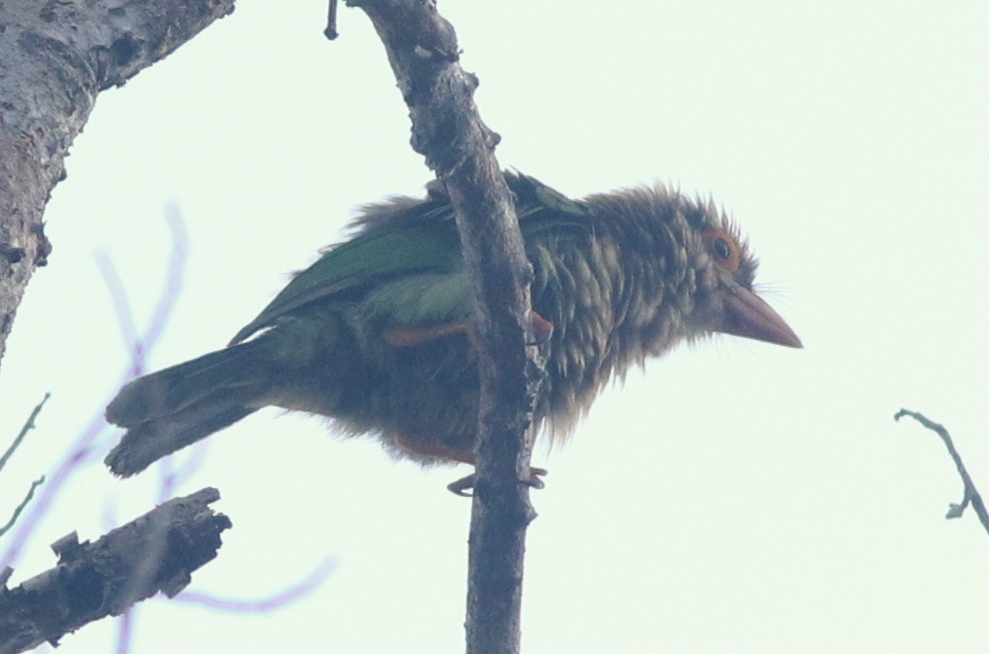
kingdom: Animalia
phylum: Chordata
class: Aves
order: Piciformes
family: Megalaimidae
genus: Psilopogon
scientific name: Psilopogon lineatus
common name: Lineated barbet
